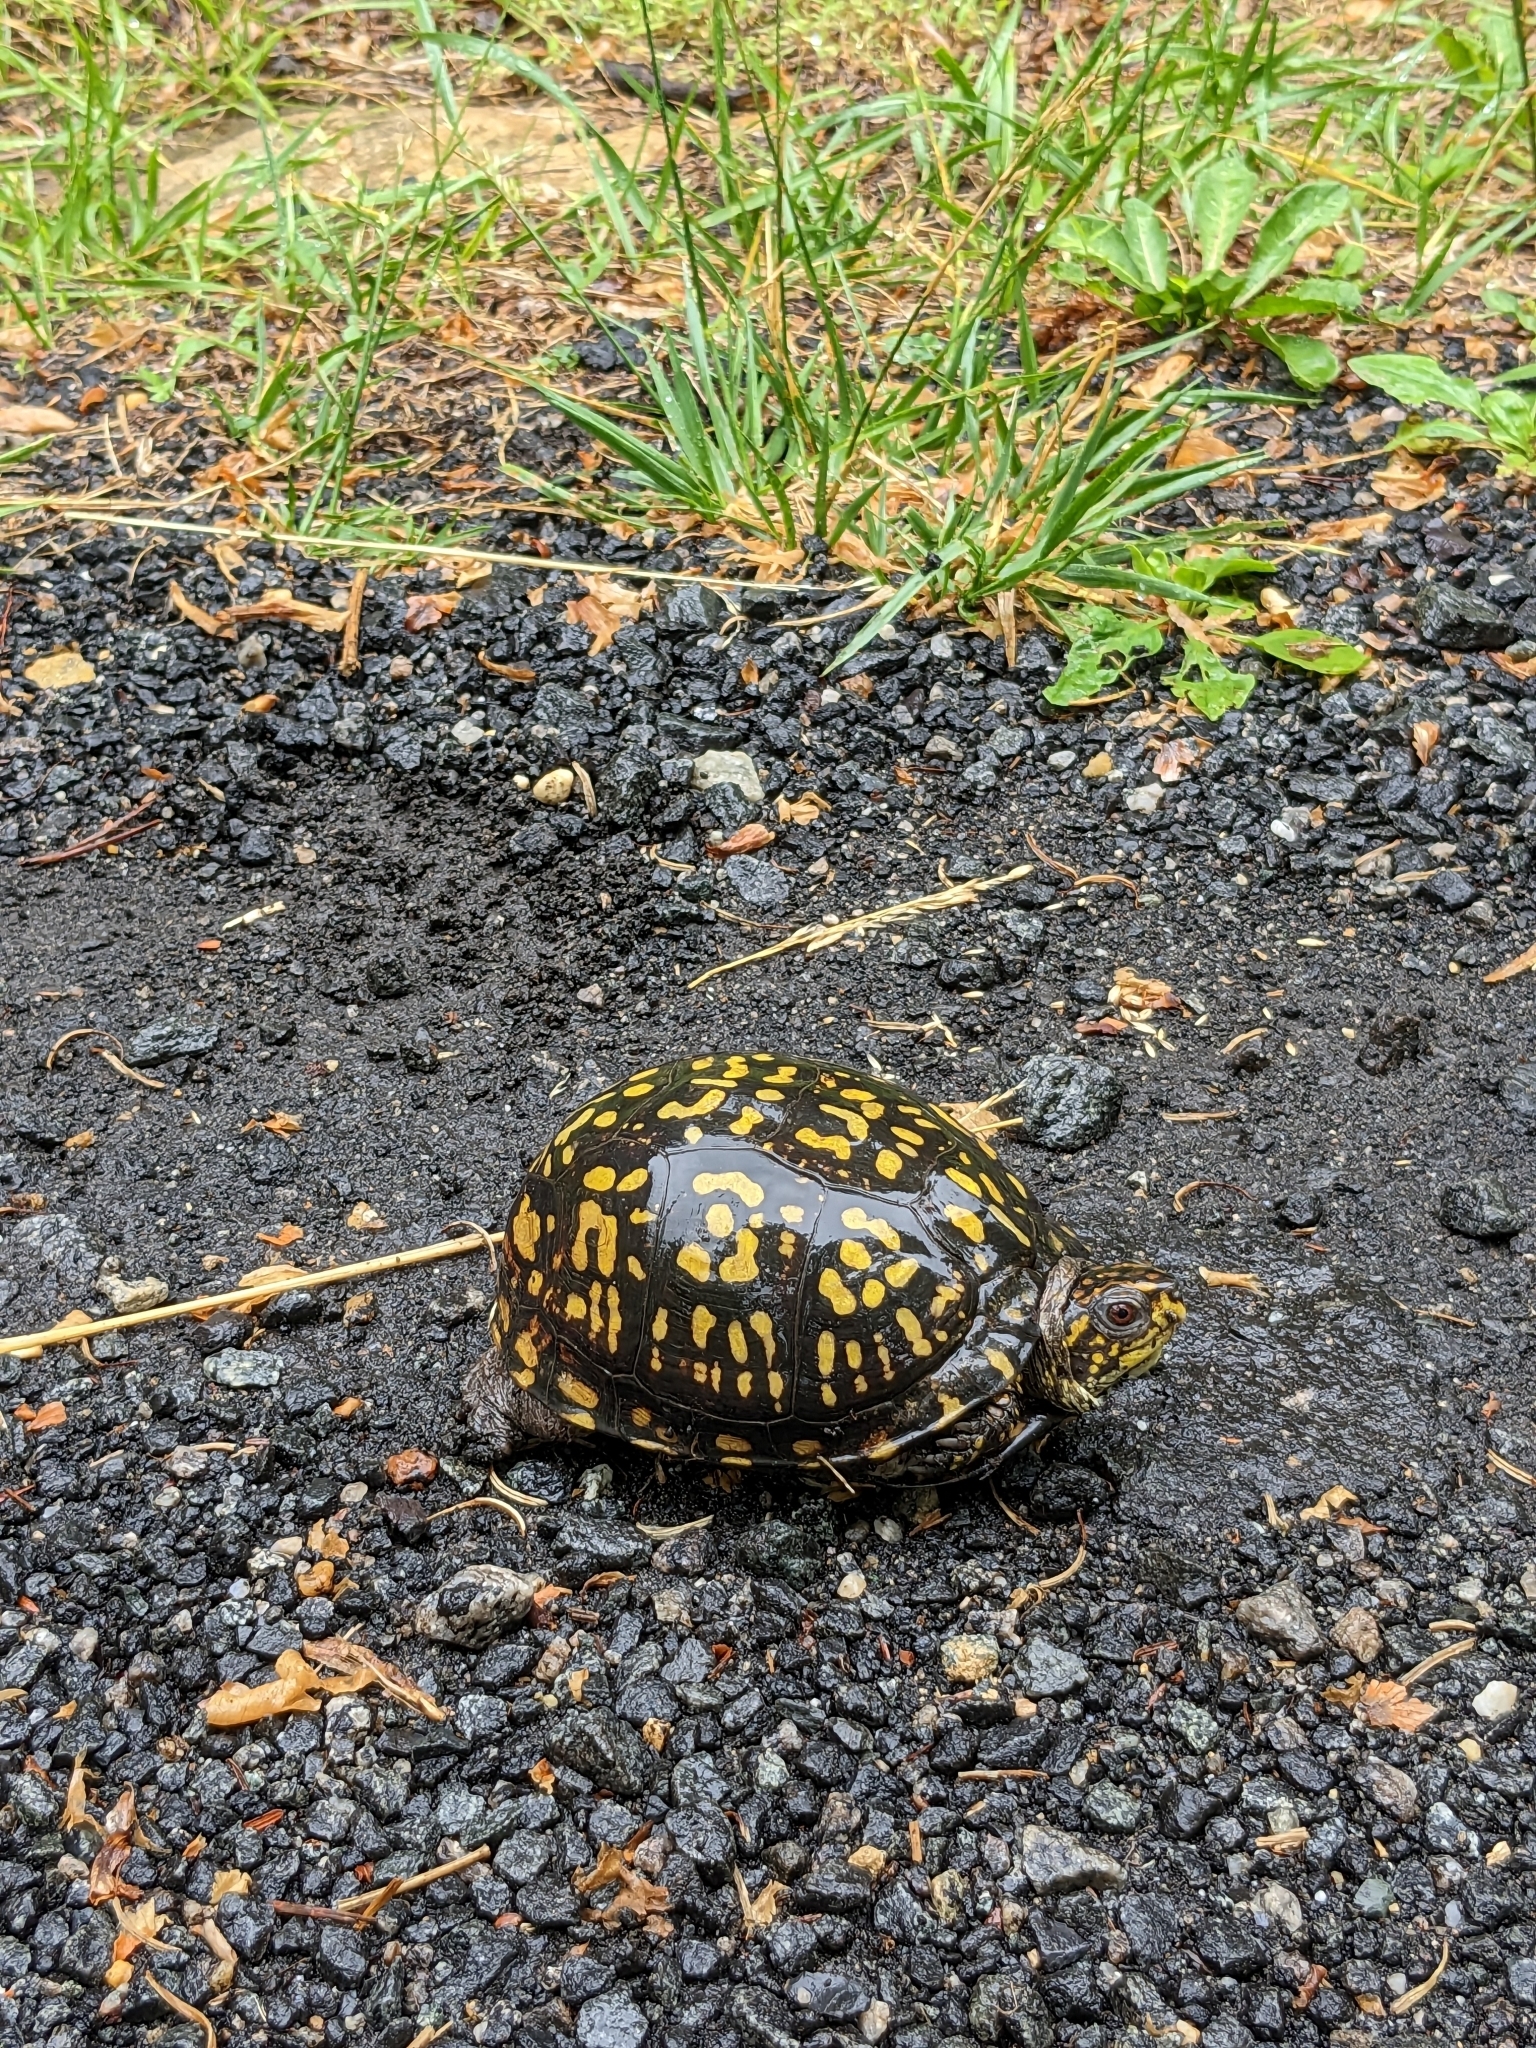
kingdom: Animalia
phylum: Chordata
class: Testudines
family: Emydidae
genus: Terrapene
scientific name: Terrapene carolina
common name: Common box turtle
